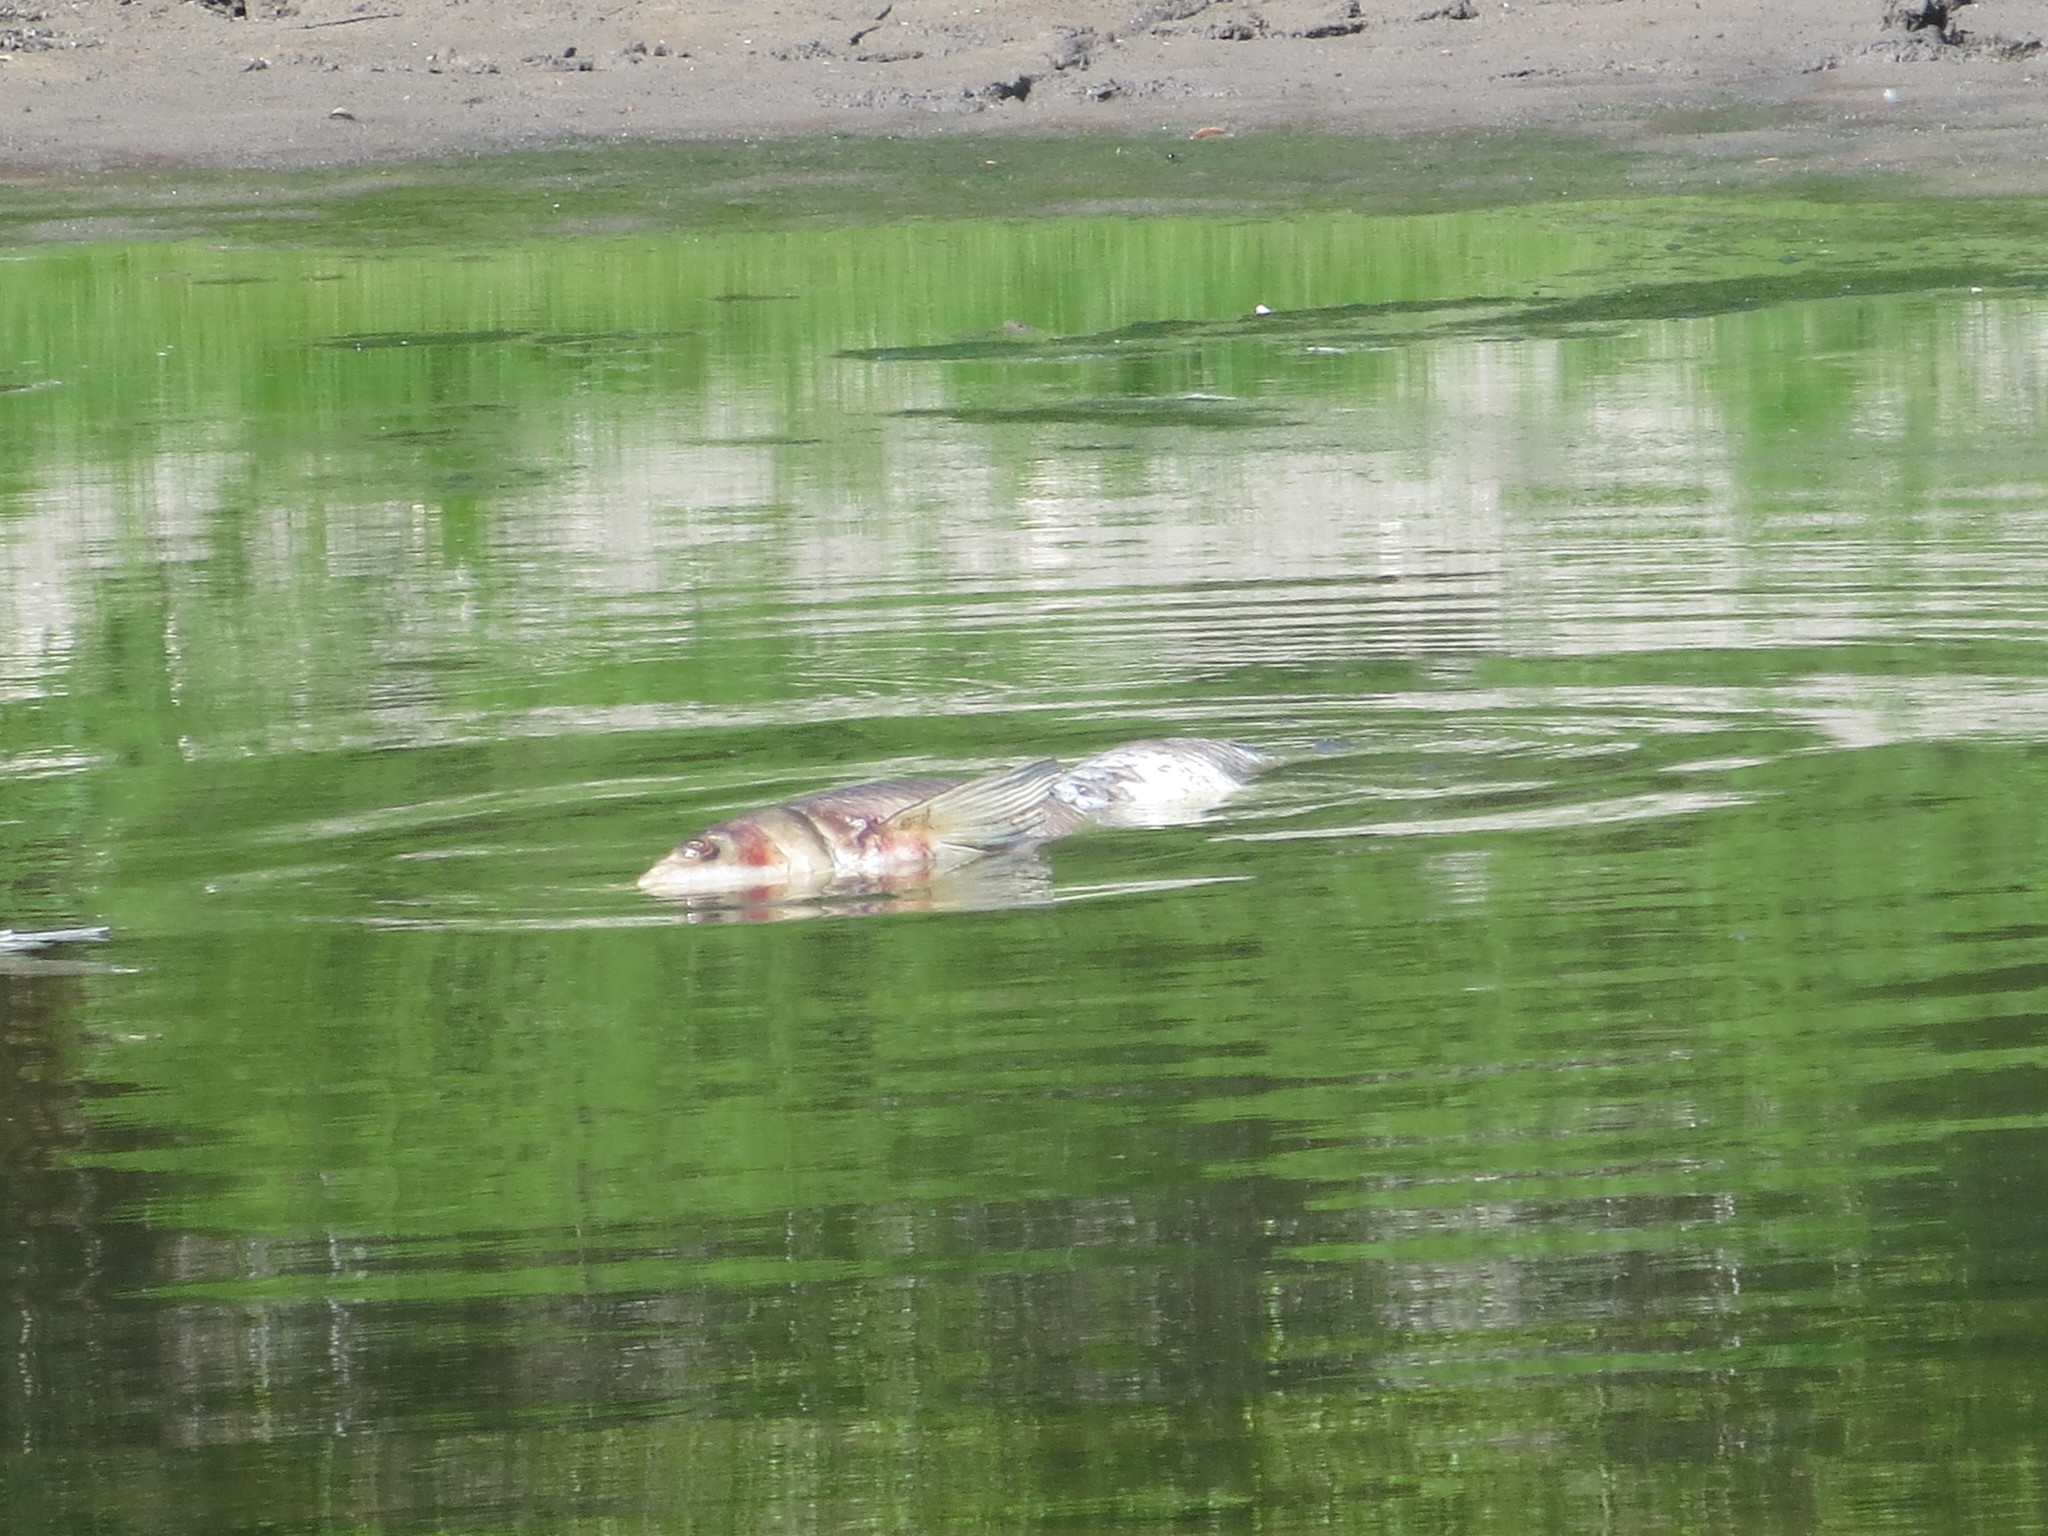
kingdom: Animalia
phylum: Chordata
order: Cypriniformes
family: Cyprinidae
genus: Ctenopharyngodon
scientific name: Ctenopharyngodon idella
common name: Grass carp
